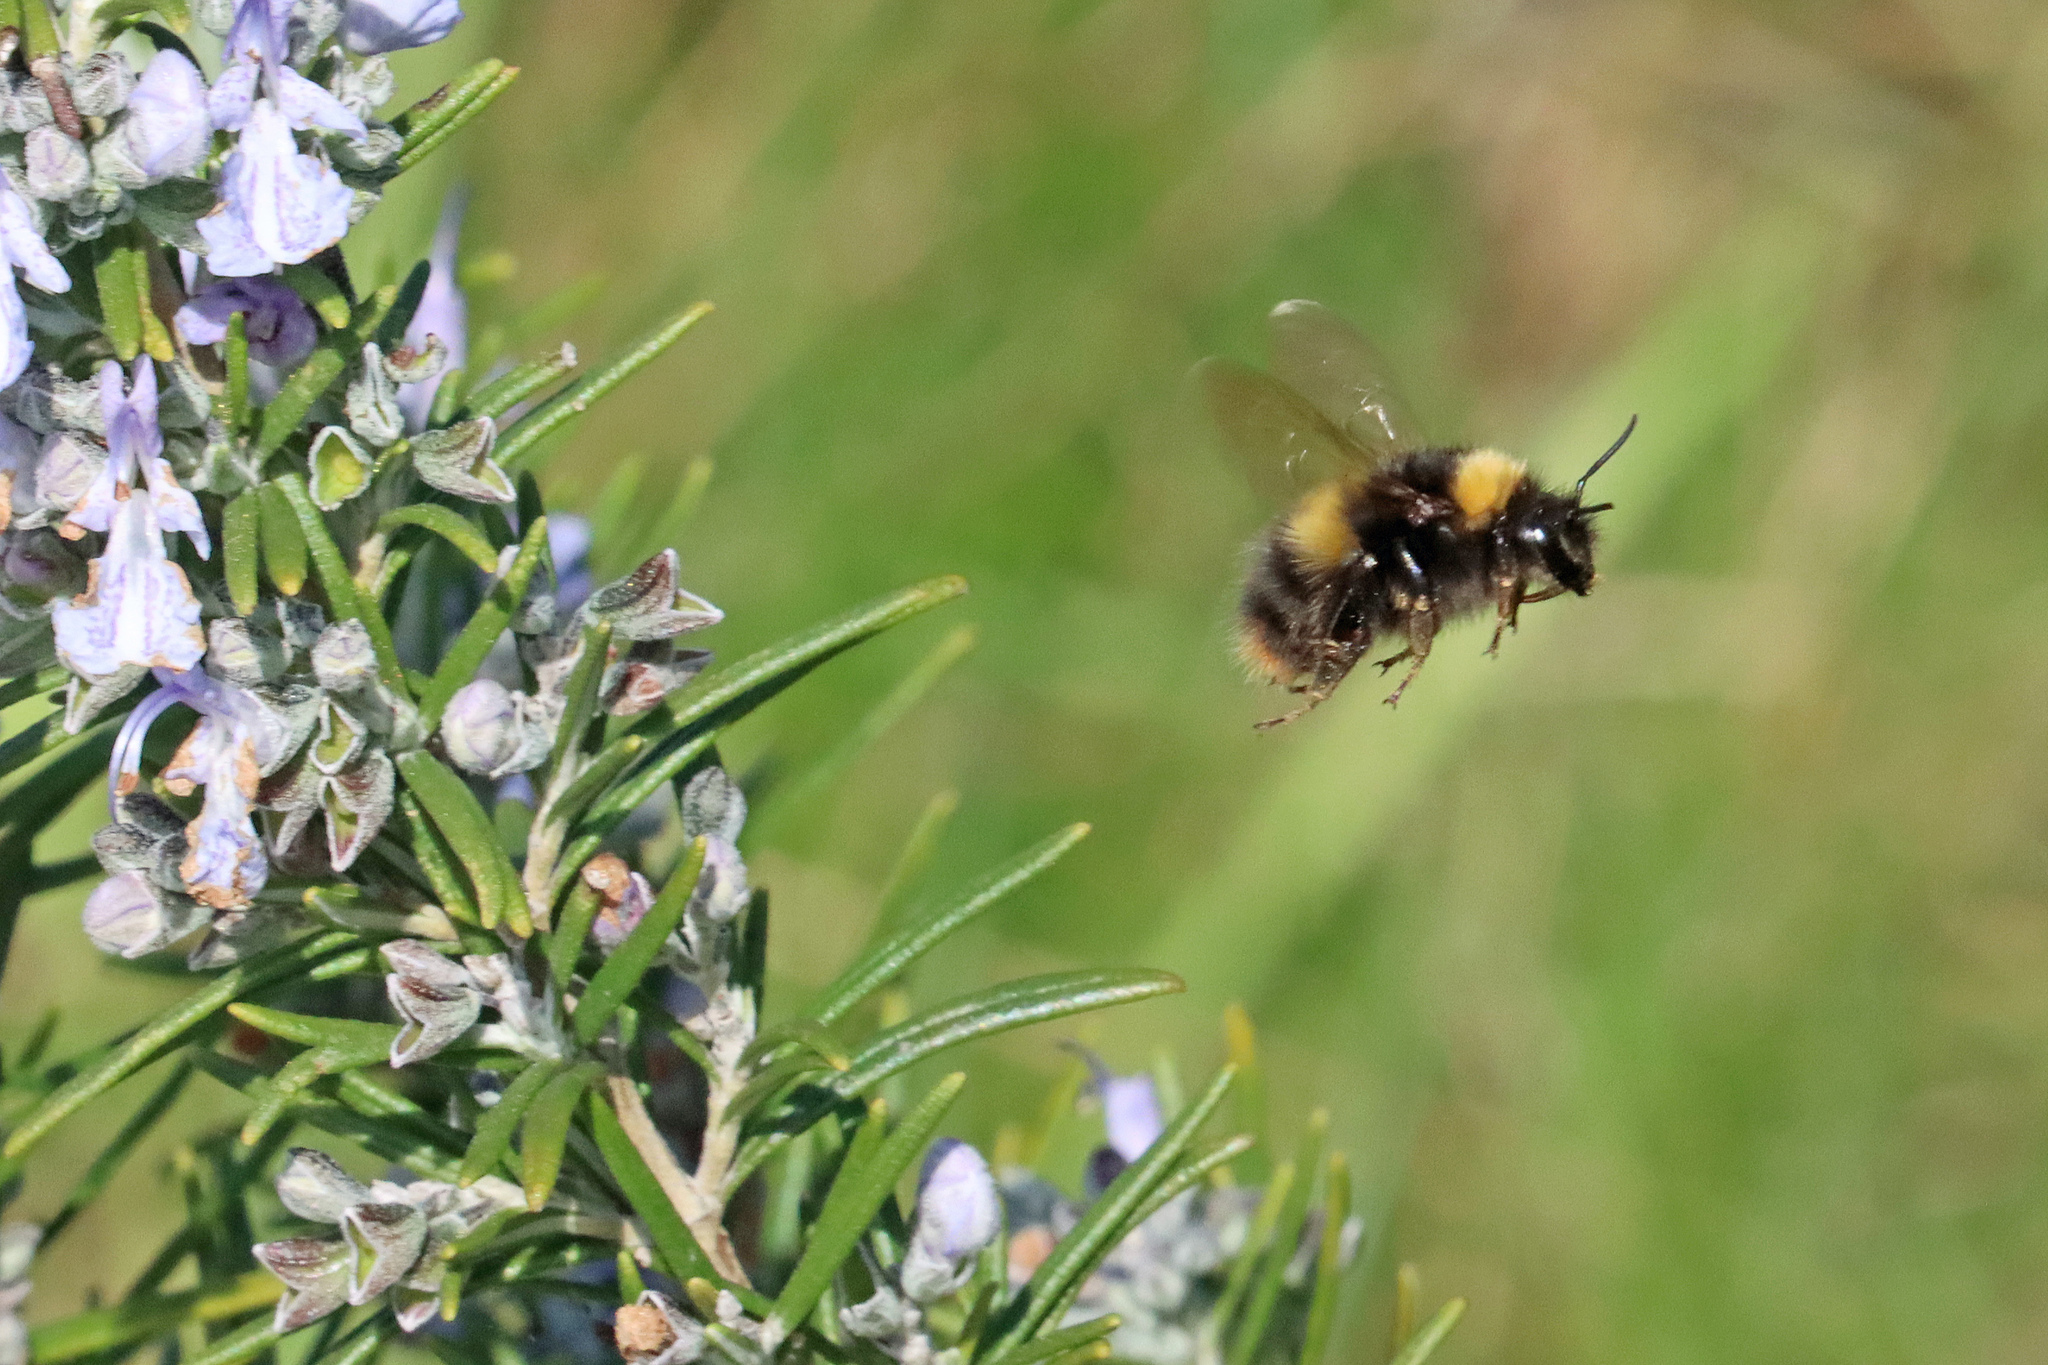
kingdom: Animalia
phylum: Arthropoda
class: Insecta
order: Hymenoptera
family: Apidae
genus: Bombus
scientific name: Bombus pratorum
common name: Early humble-bee
